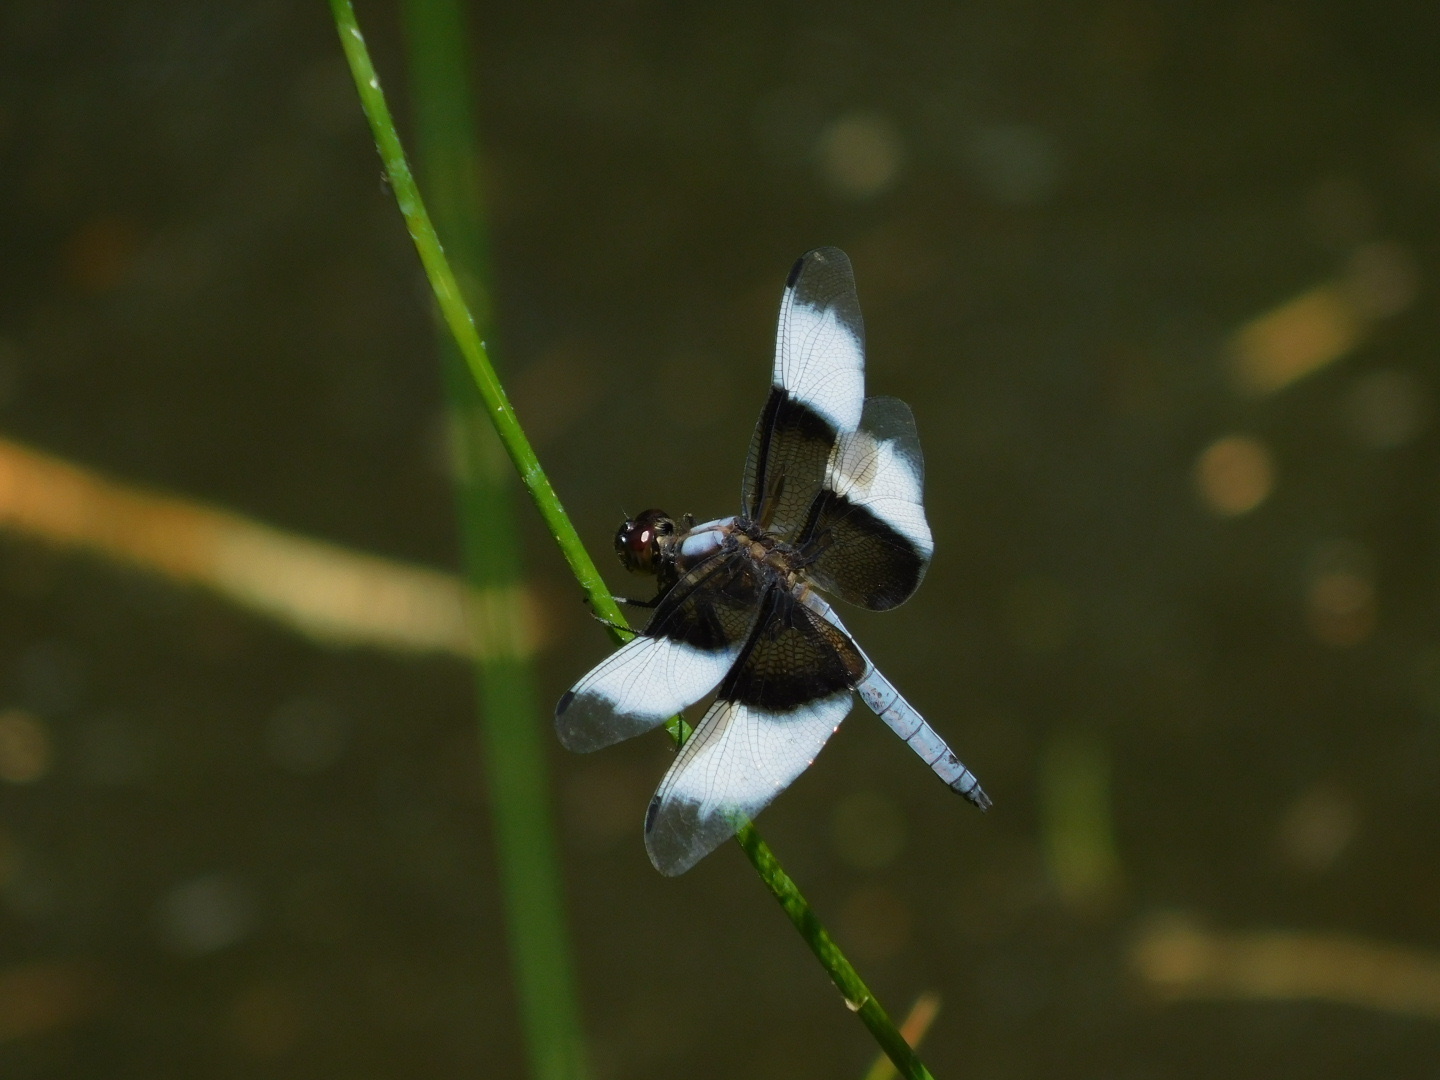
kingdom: Animalia
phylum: Arthropoda
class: Insecta
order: Odonata
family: Libellulidae
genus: Libellula
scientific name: Libellula luctuosa
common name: Widow skimmer
